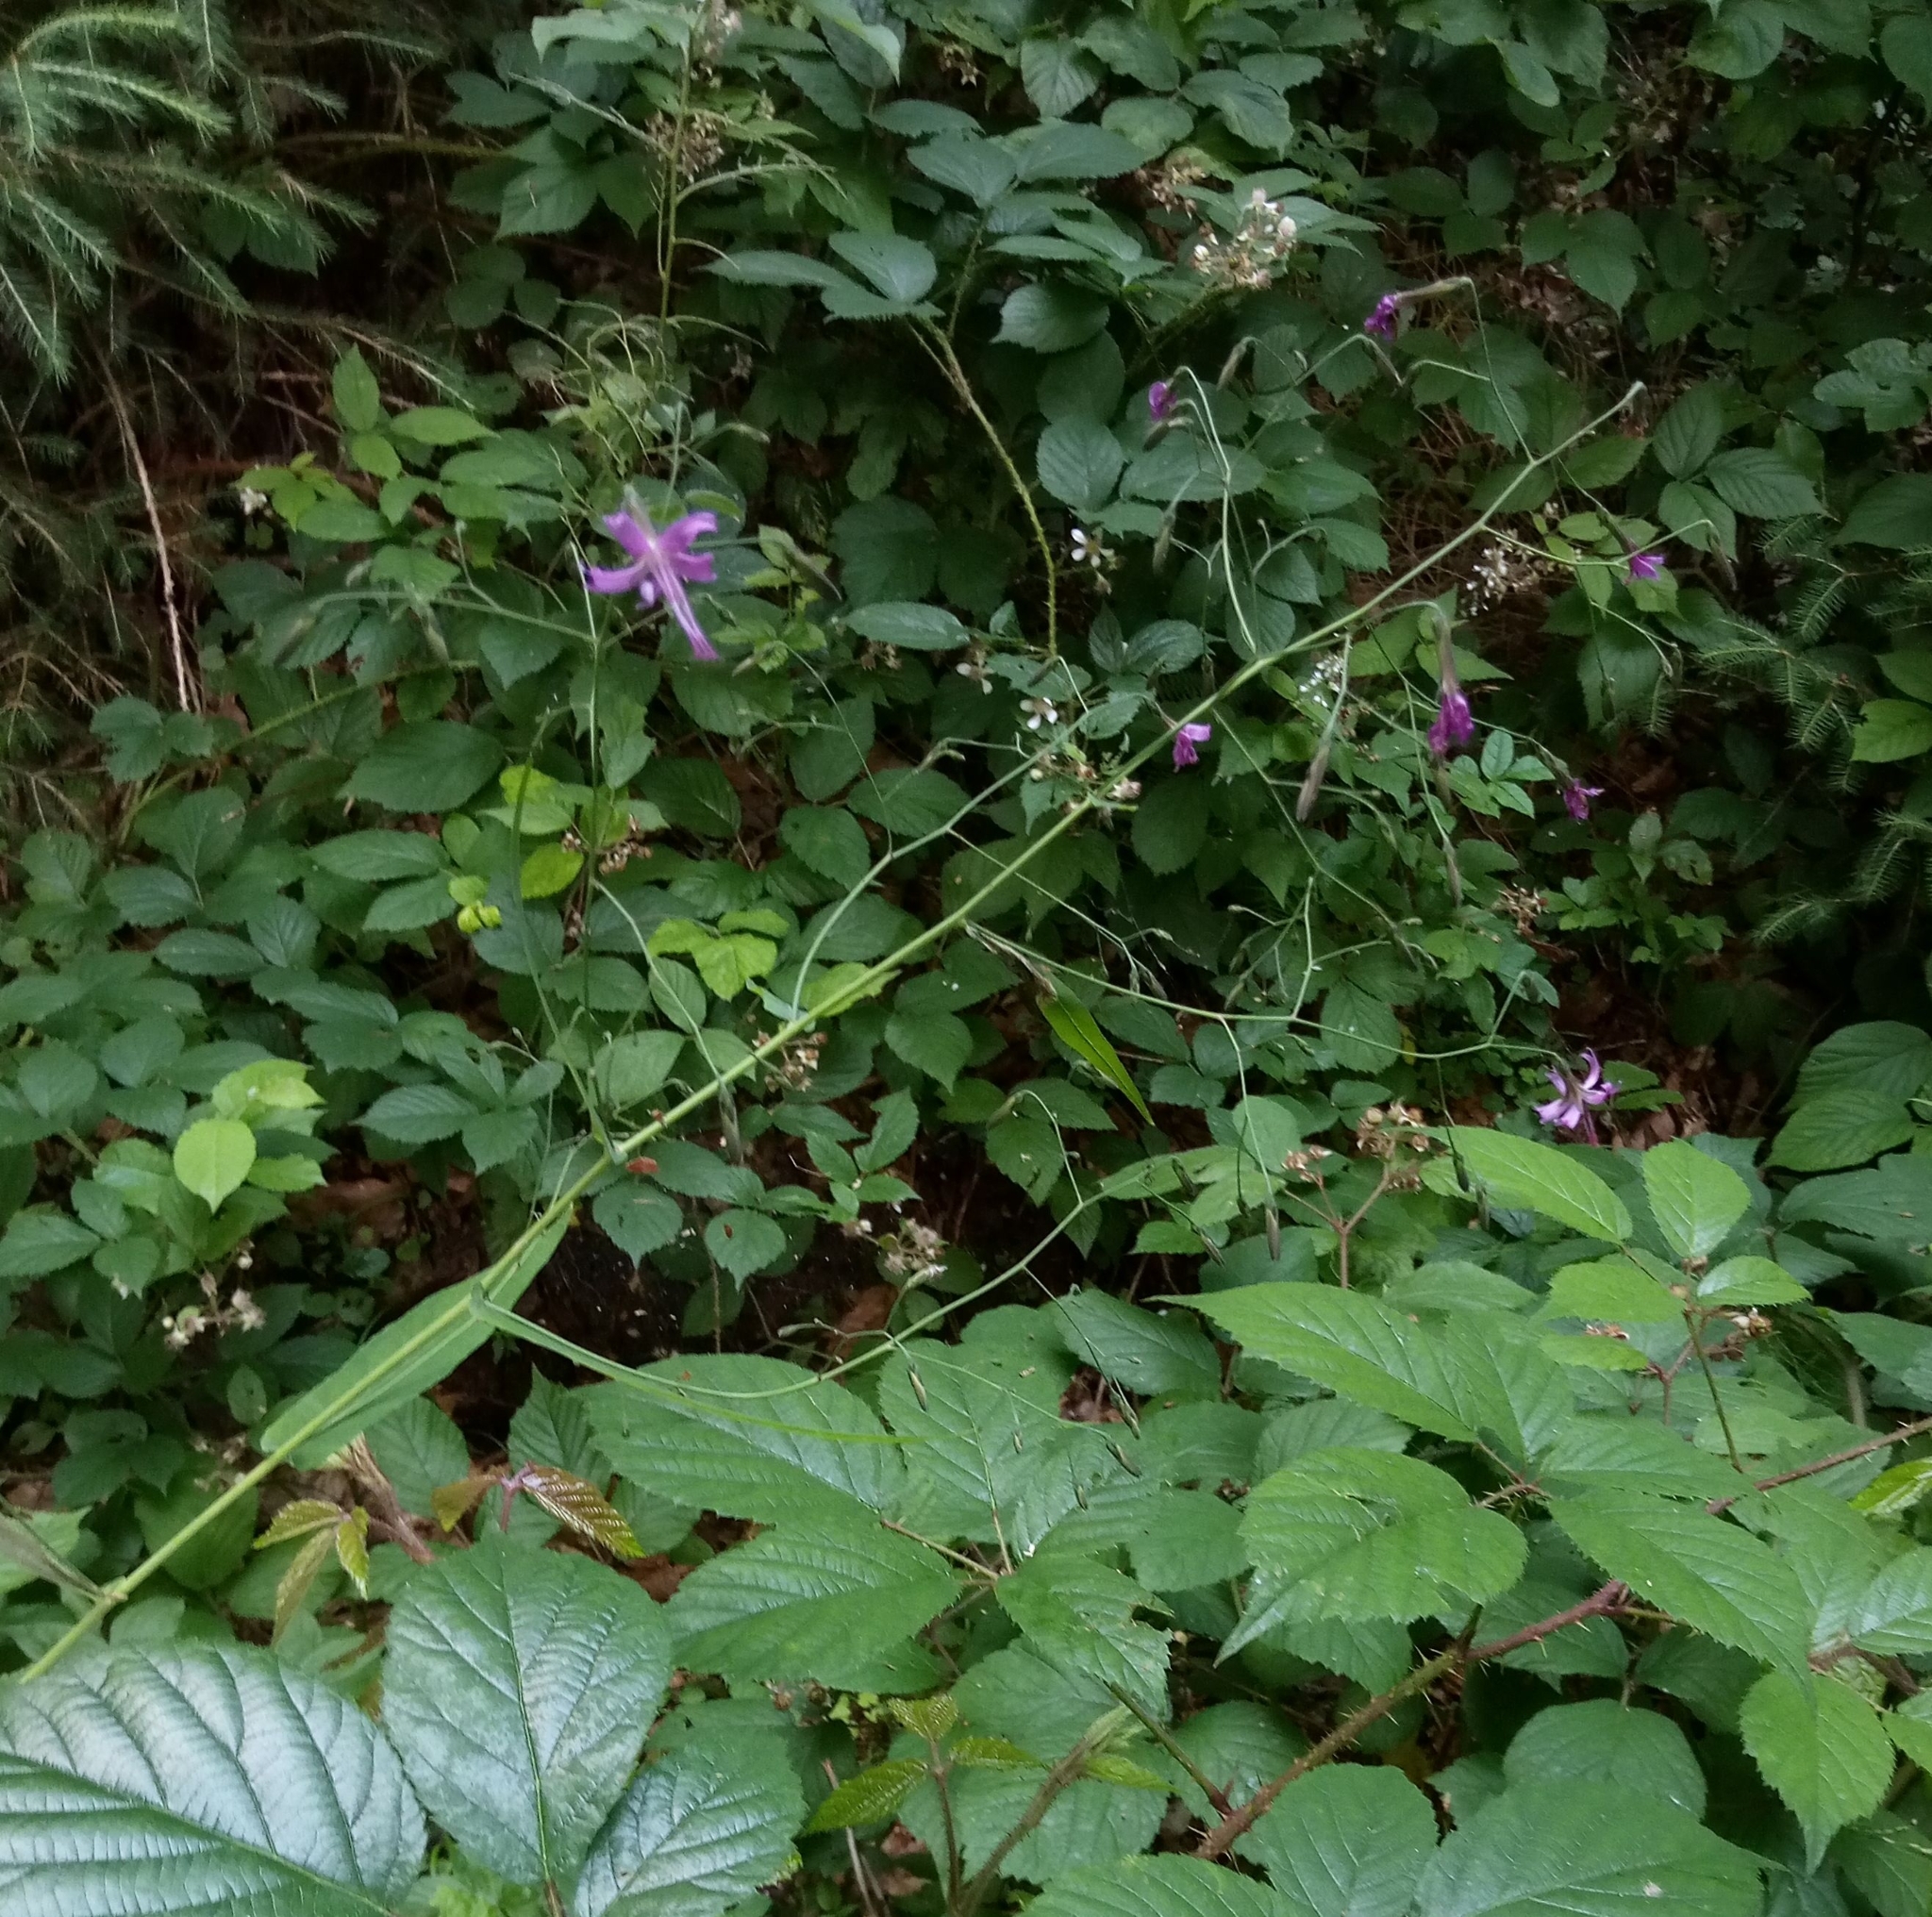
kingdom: Plantae
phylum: Tracheophyta
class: Magnoliopsida
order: Asterales
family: Asteraceae
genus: Prenanthes
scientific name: Prenanthes purpurea
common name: Purple lettuce
